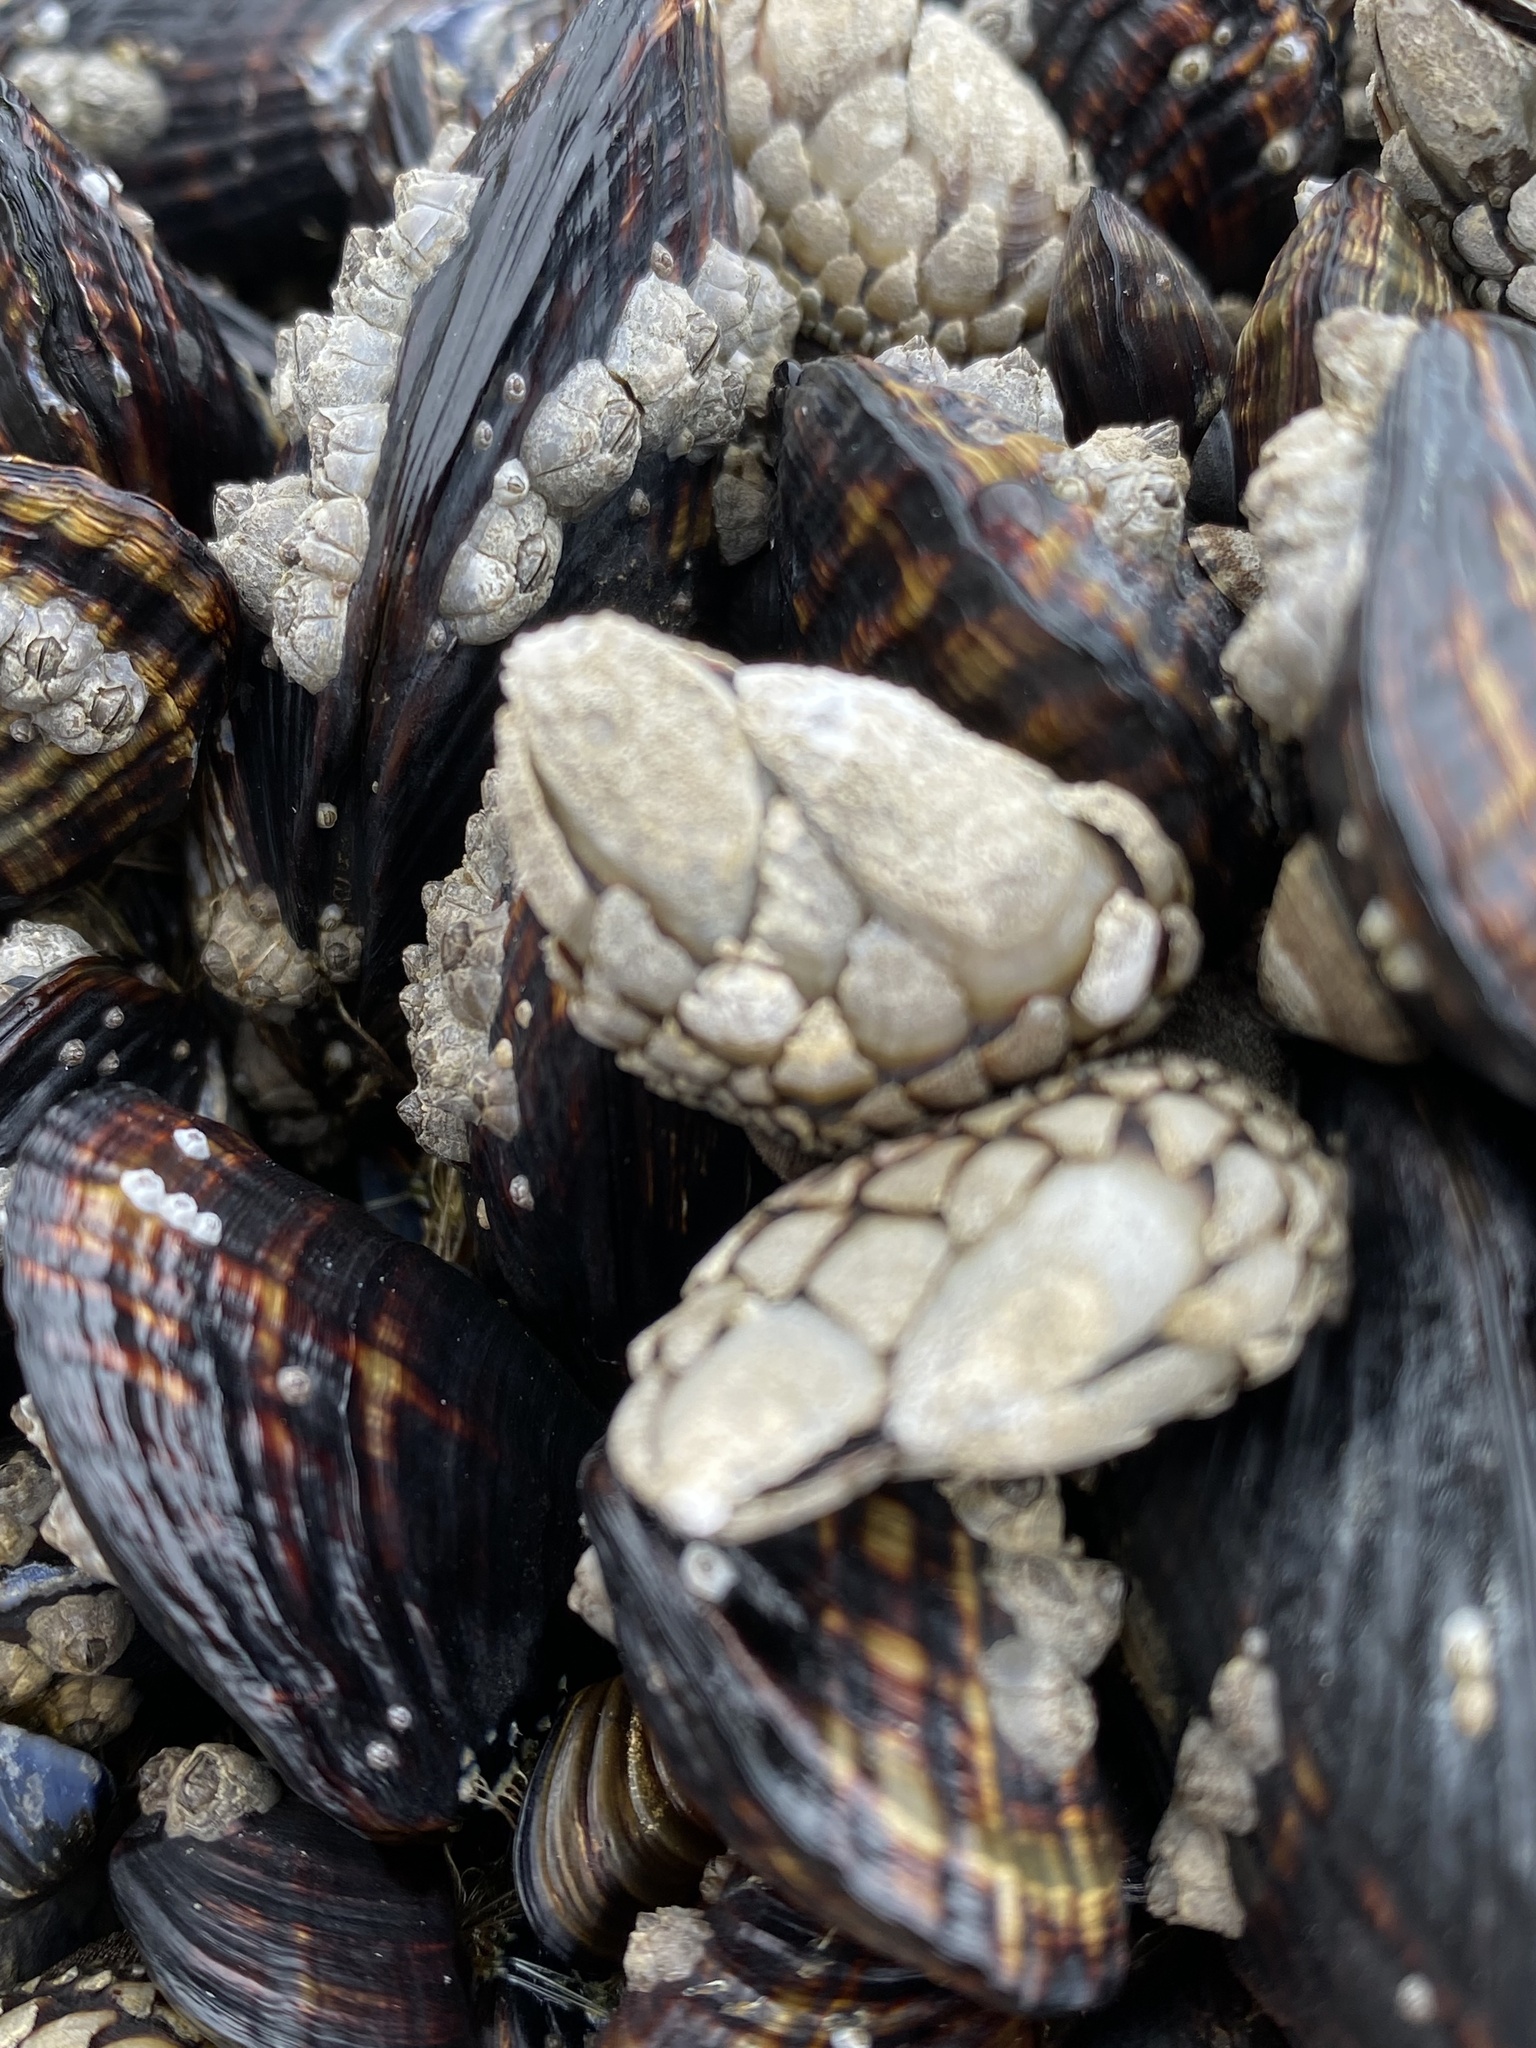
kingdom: Animalia
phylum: Arthropoda
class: Maxillopoda
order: Pedunculata
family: Pollicipedidae
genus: Pollicipes
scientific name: Pollicipes polymerus
